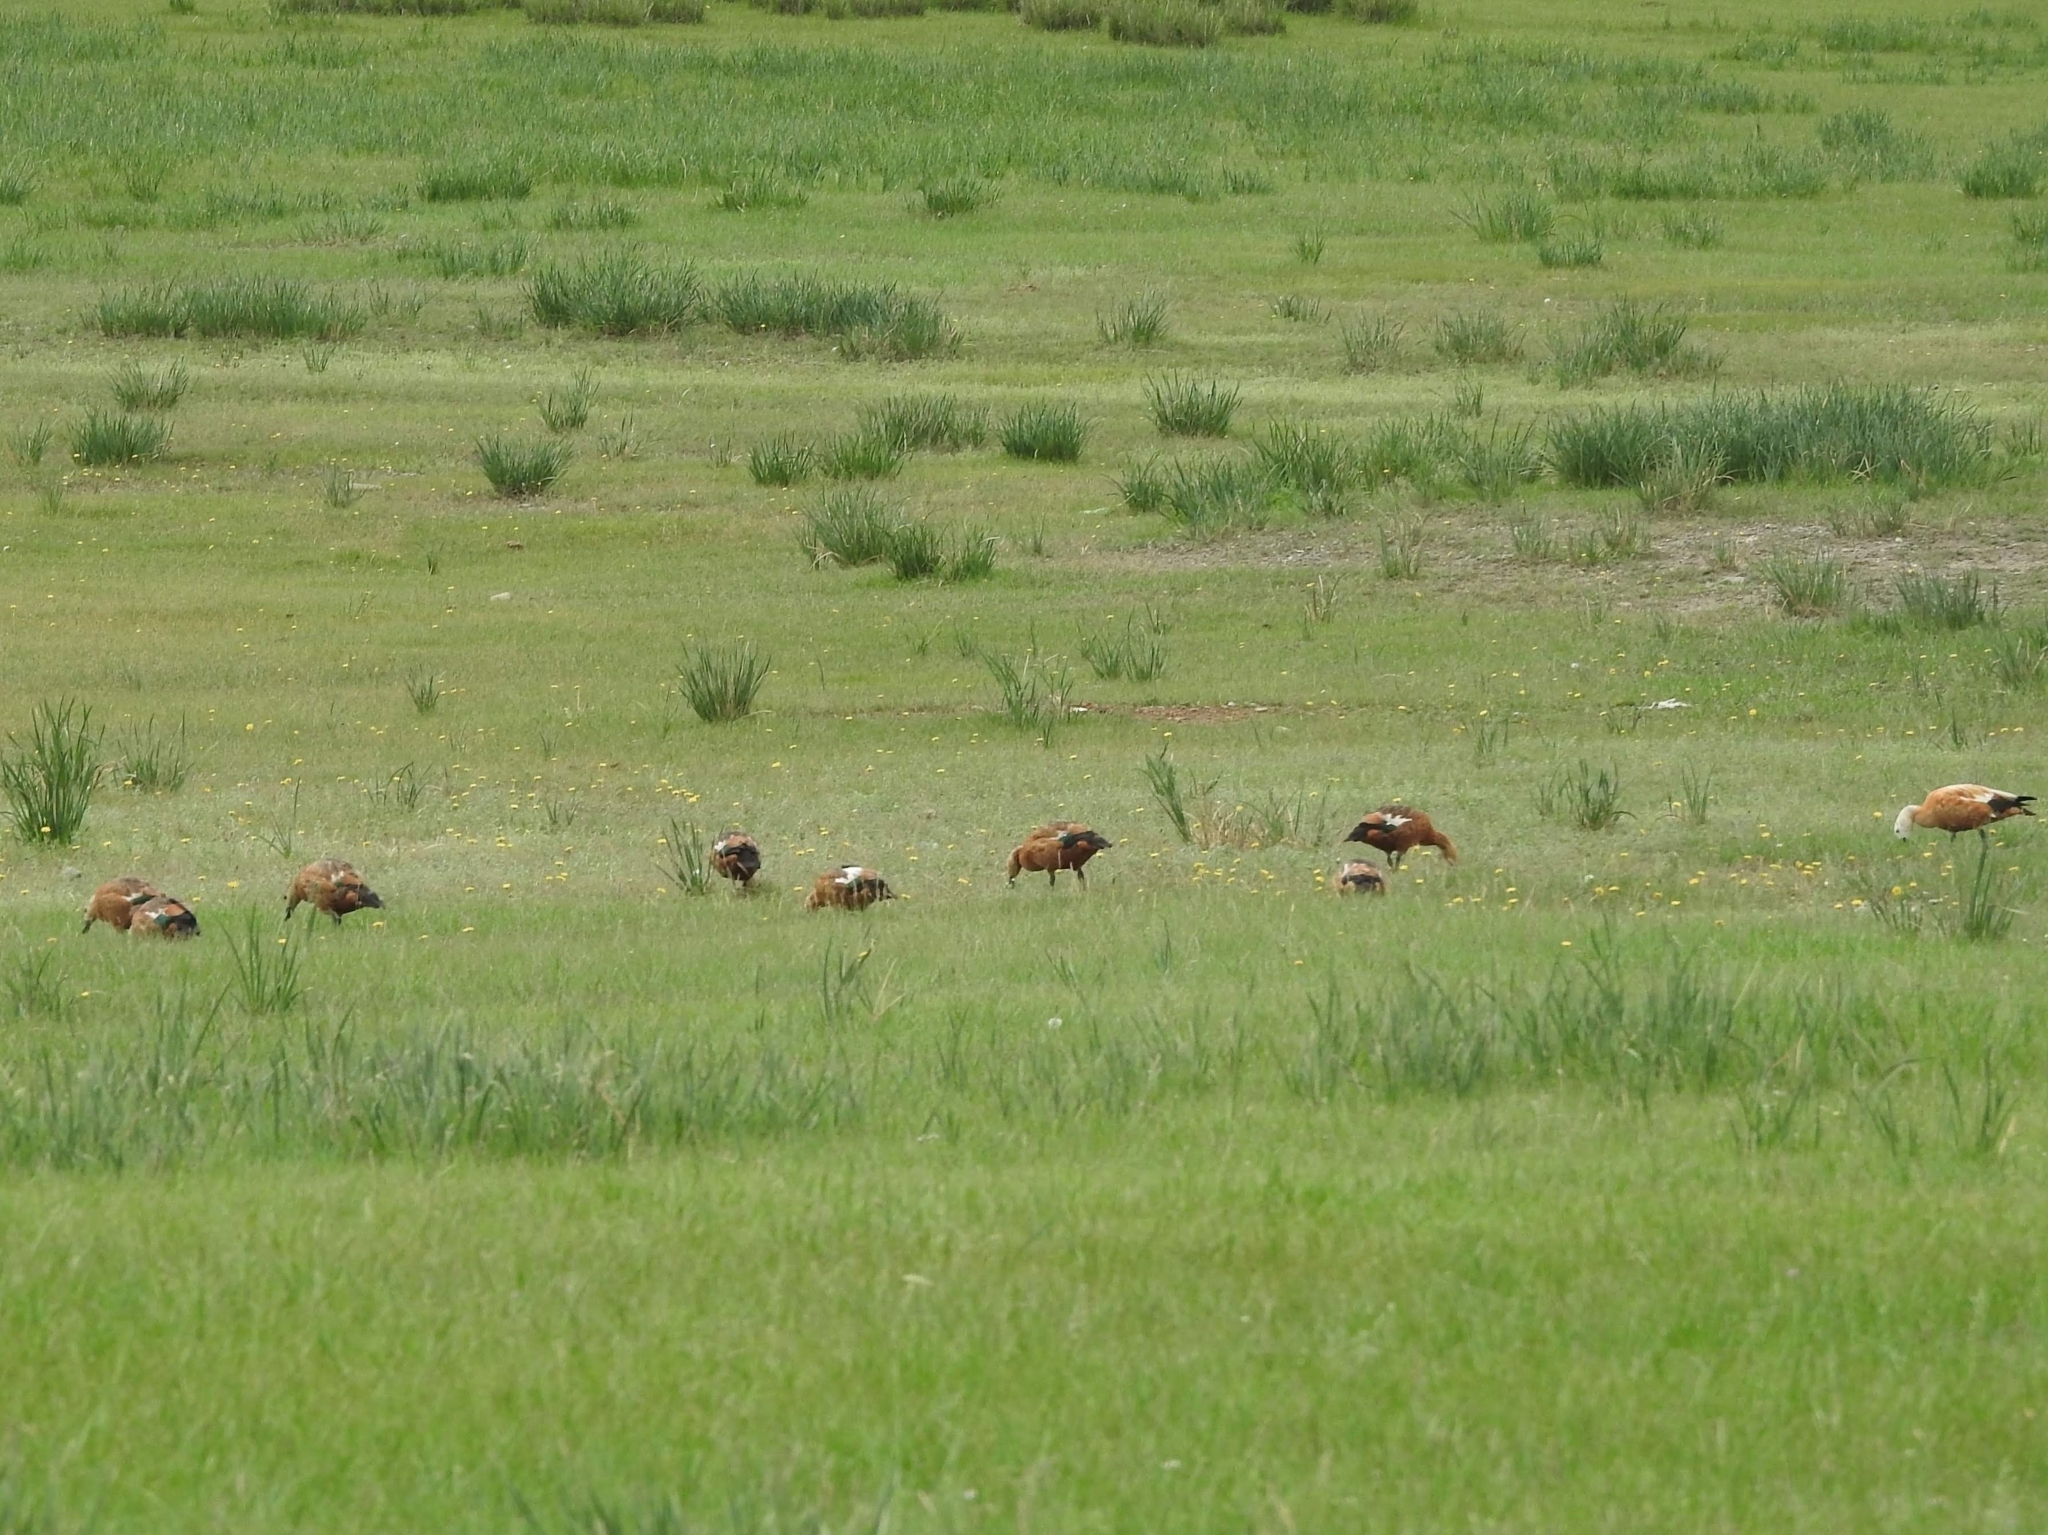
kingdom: Animalia
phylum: Chordata
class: Aves
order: Anseriformes
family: Anatidae
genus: Tadorna
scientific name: Tadorna ferruginea
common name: Ruddy shelduck
